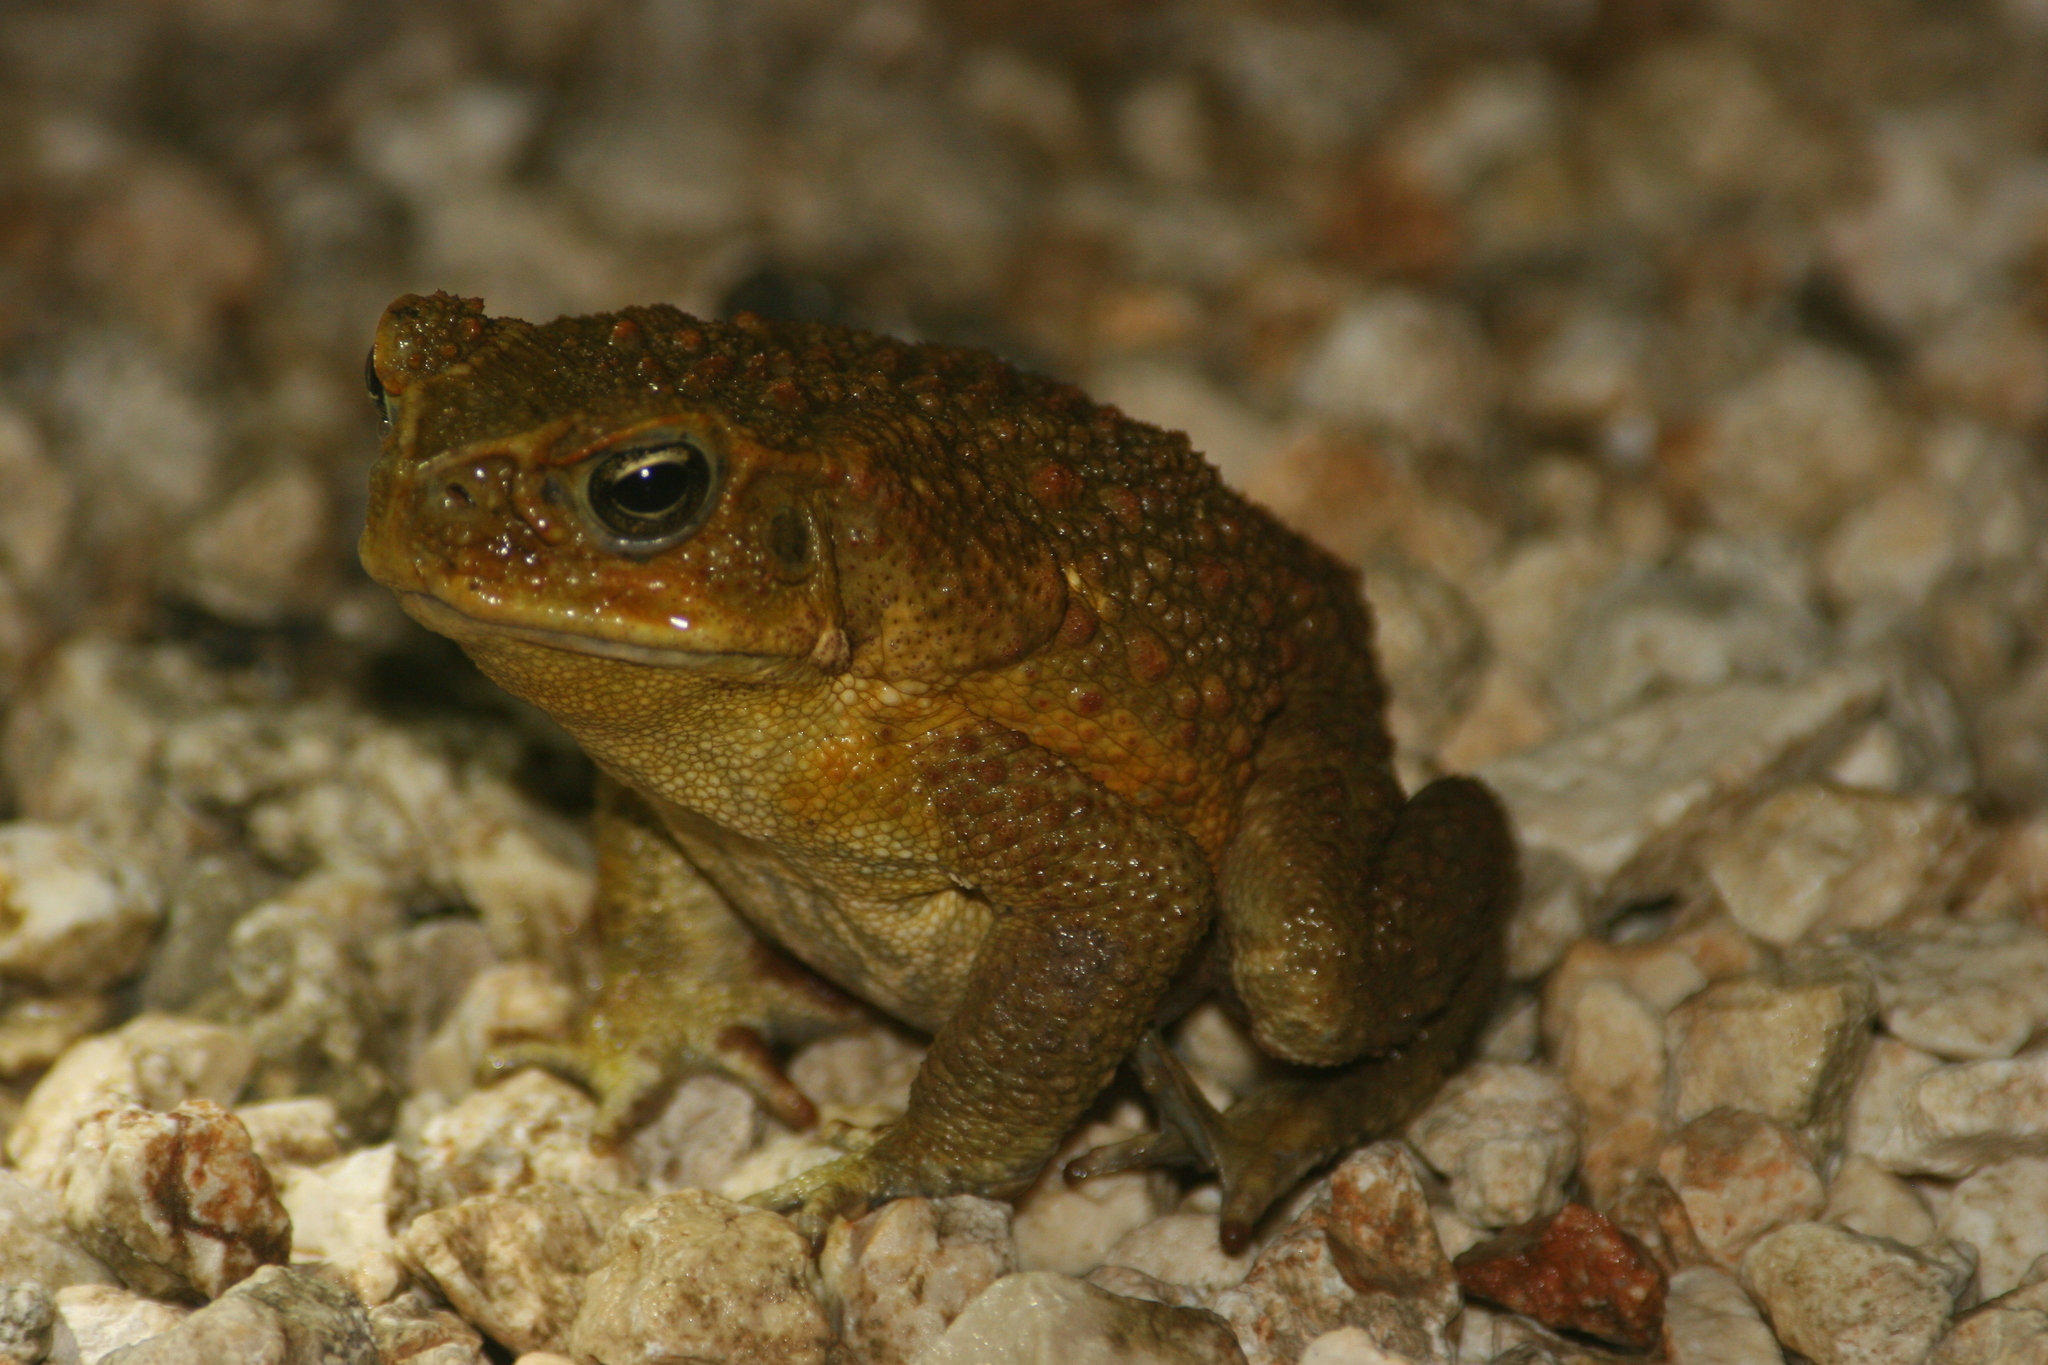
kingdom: Animalia
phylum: Chordata
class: Amphibia
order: Anura
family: Bufonidae
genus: Rhinella
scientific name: Rhinella marina
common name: Cane toad
